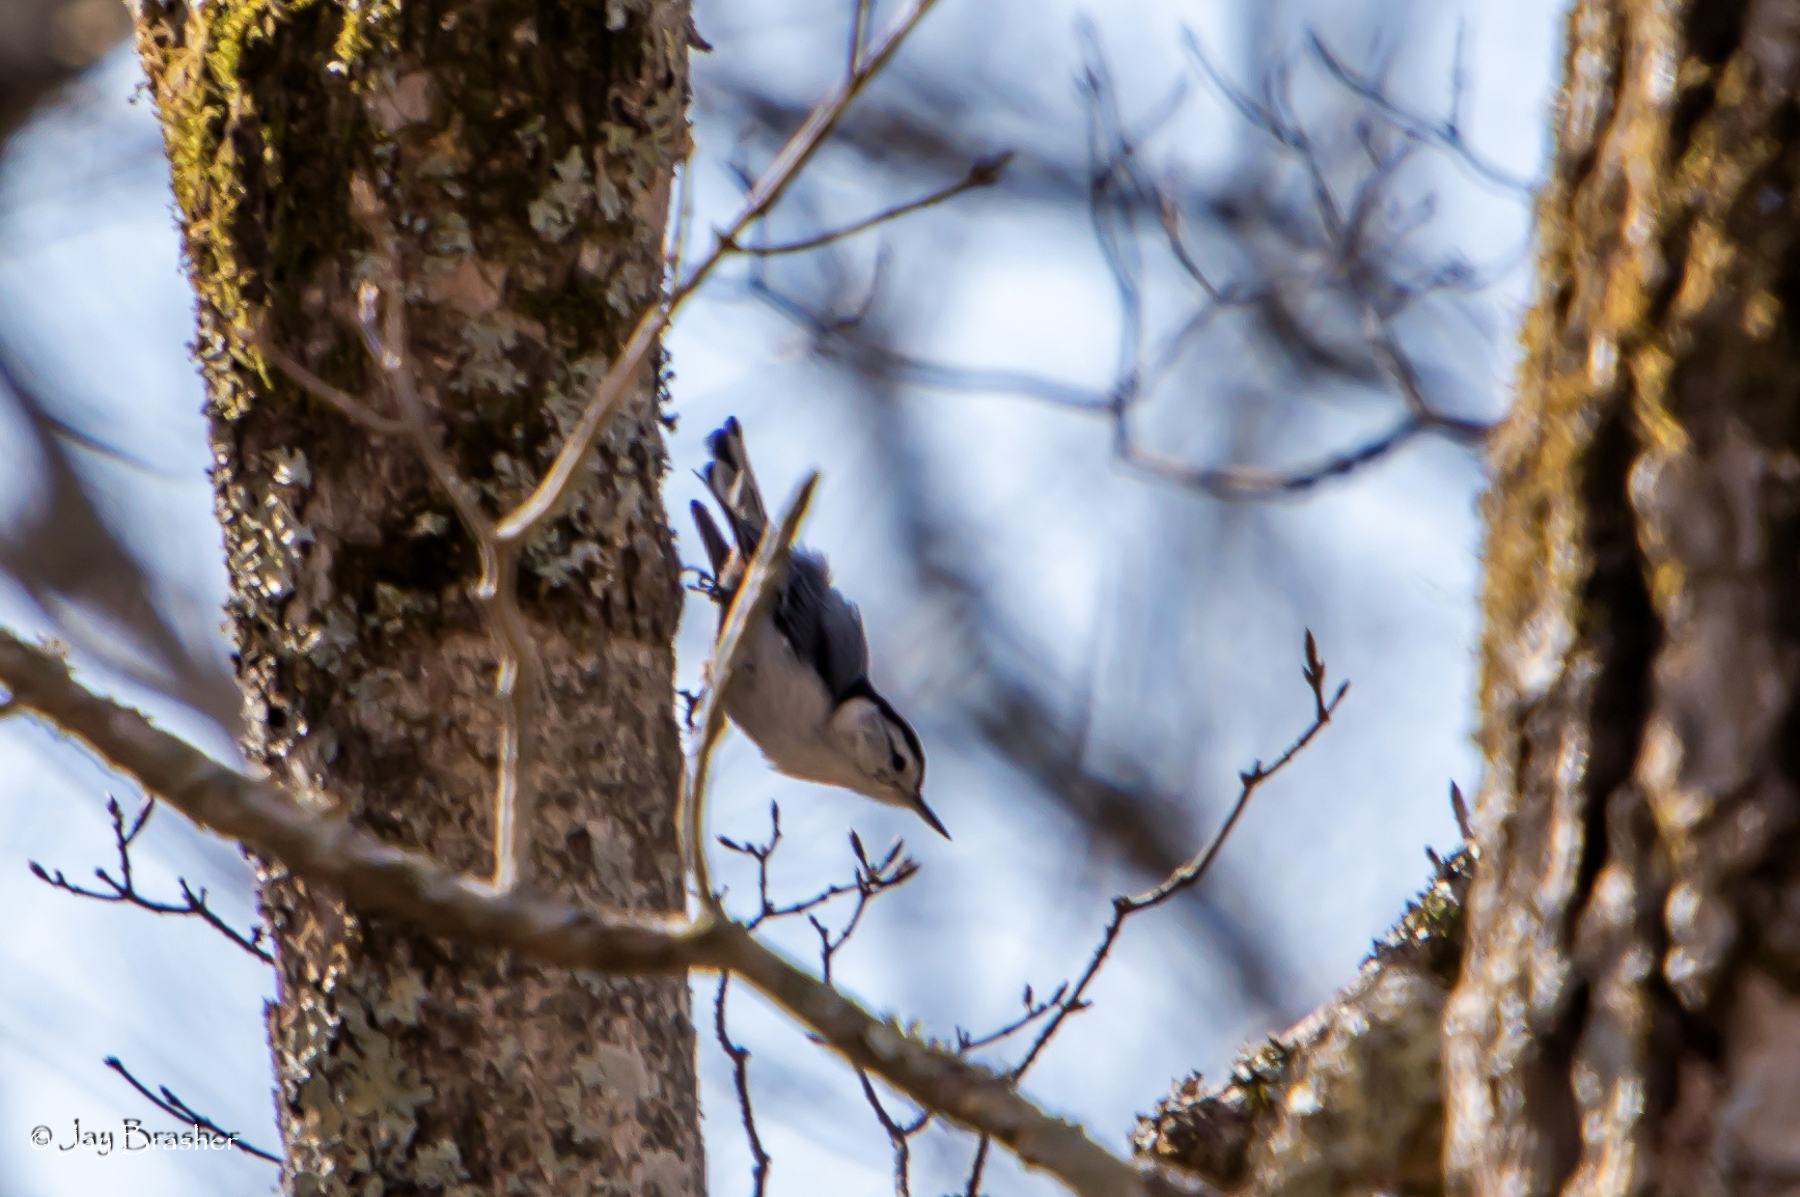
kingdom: Animalia
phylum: Chordata
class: Aves
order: Passeriformes
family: Sittidae
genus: Sitta
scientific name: Sitta carolinensis
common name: White-breasted nuthatch
